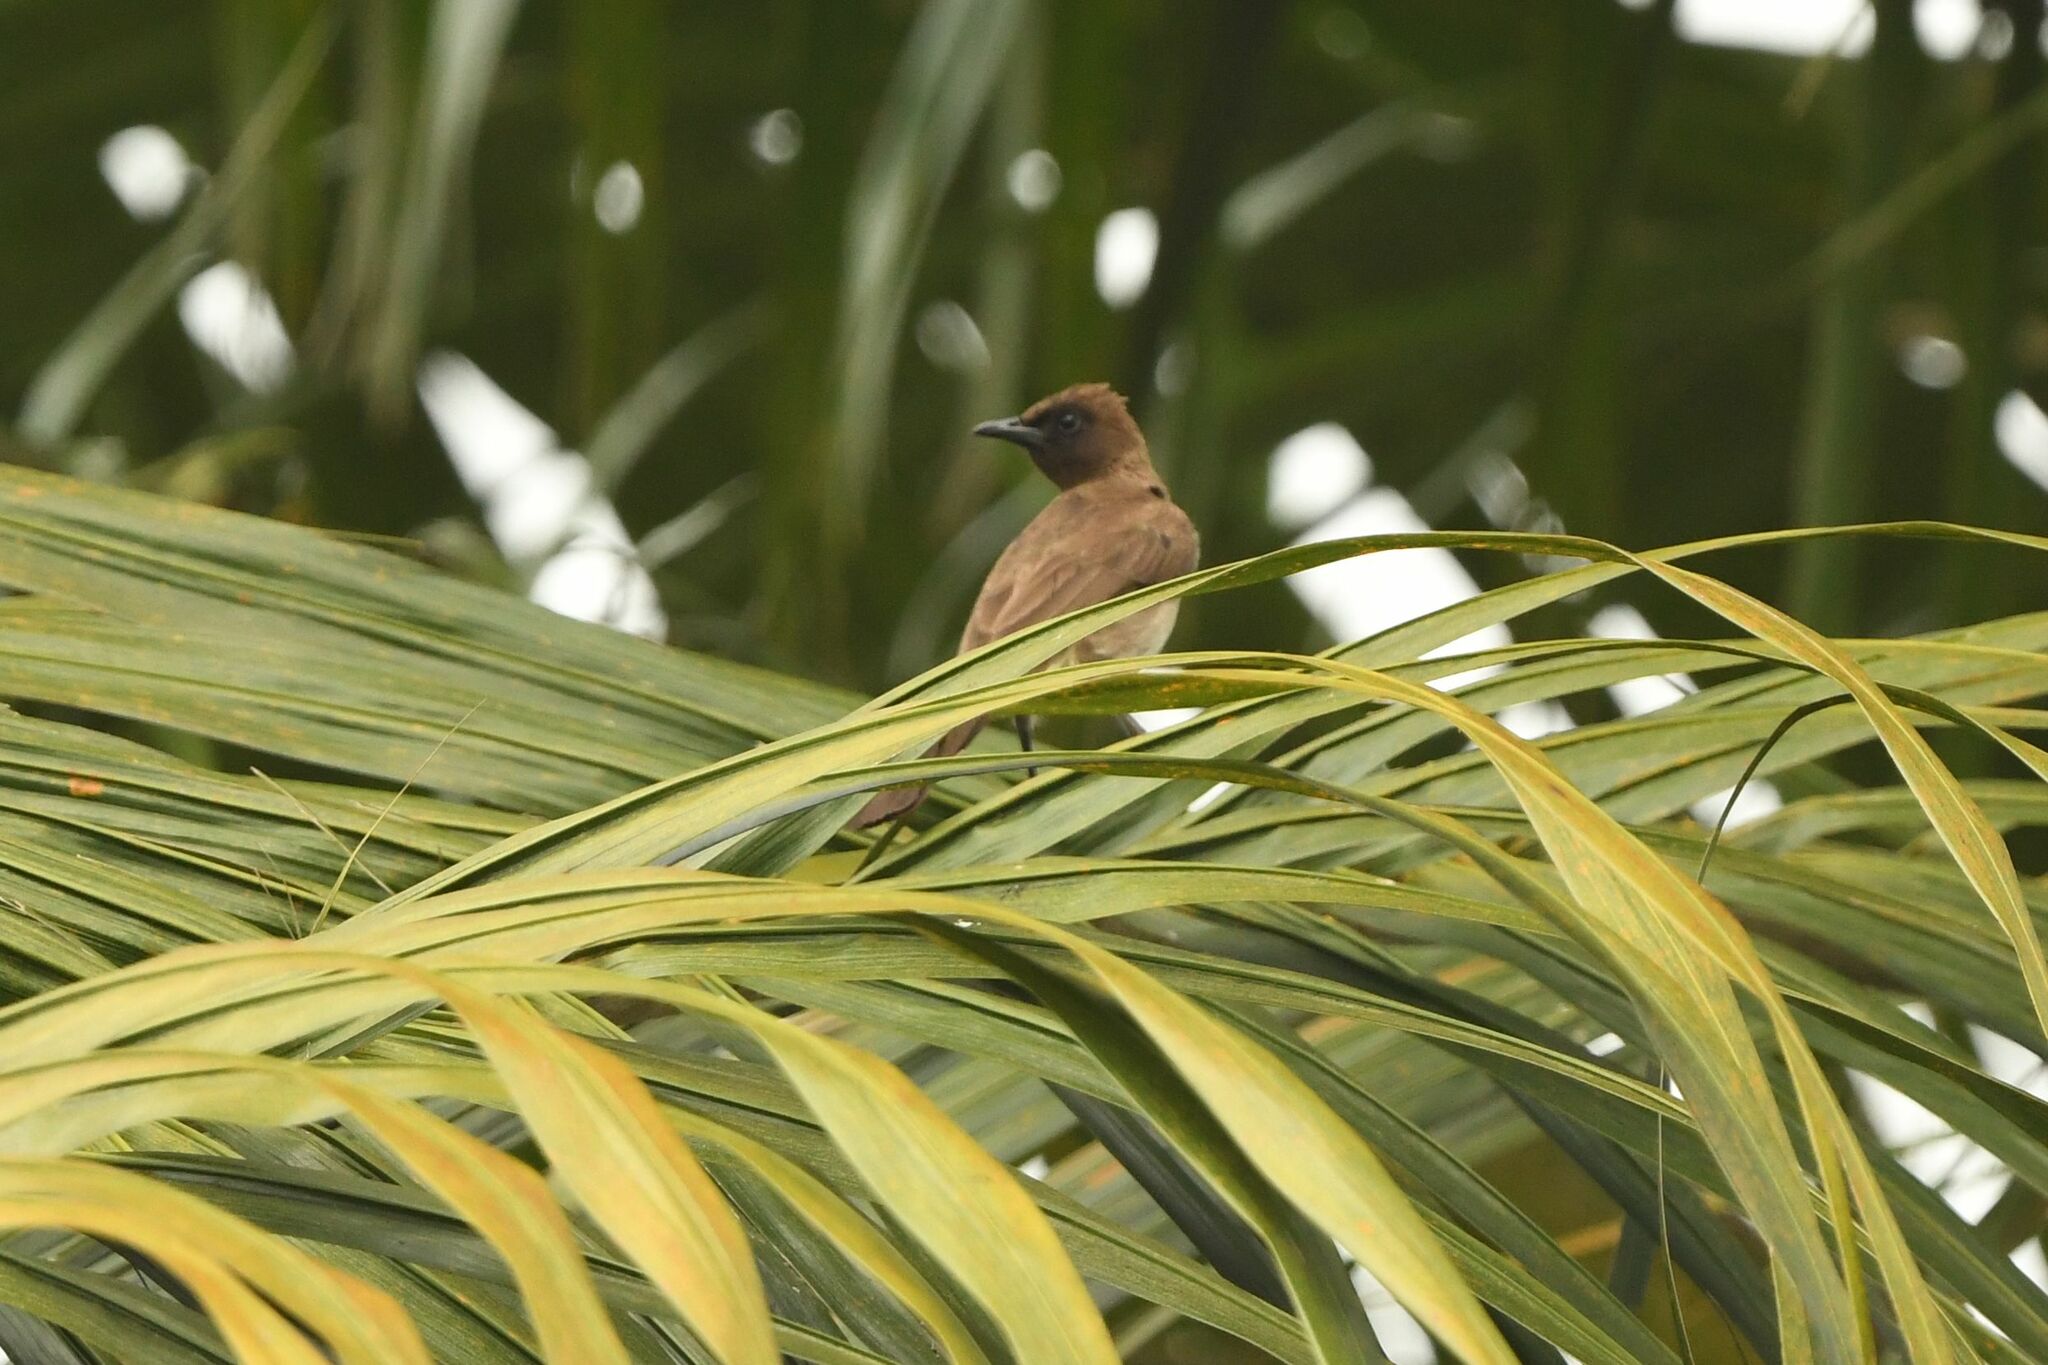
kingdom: Animalia
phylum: Chordata
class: Aves
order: Passeriformes
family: Pycnonotidae
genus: Pycnonotus
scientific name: Pycnonotus barbatus
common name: Common bulbul
